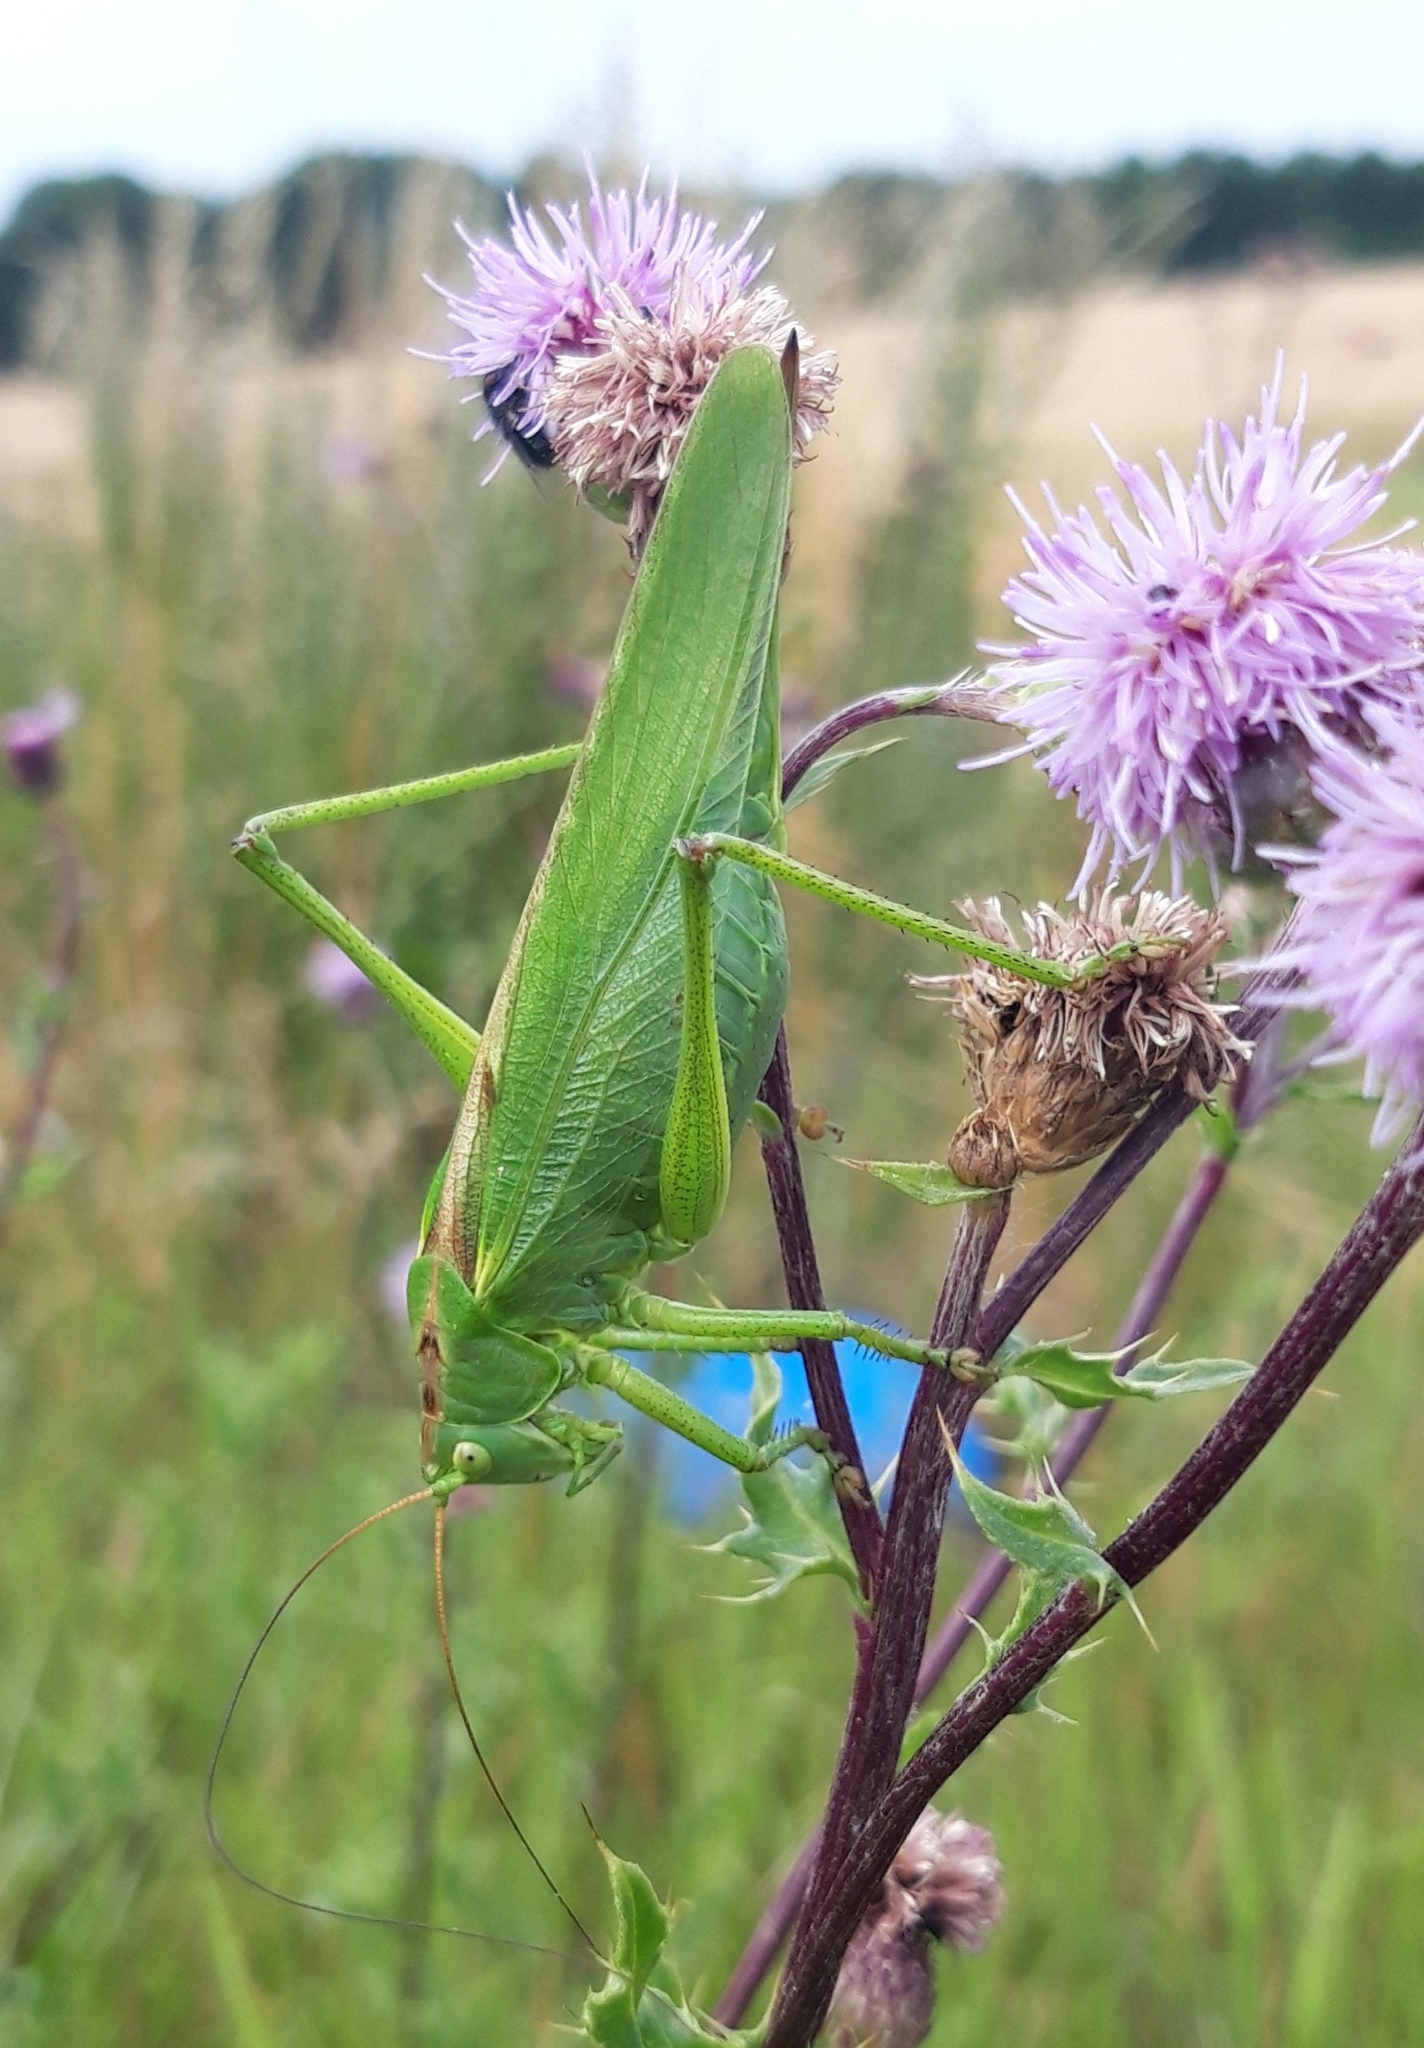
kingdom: Animalia
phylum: Arthropoda
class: Insecta
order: Orthoptera
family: Tettigoniidae
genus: Tettigonia
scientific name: Tettigonia viridissima
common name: Great green bush-cricket
